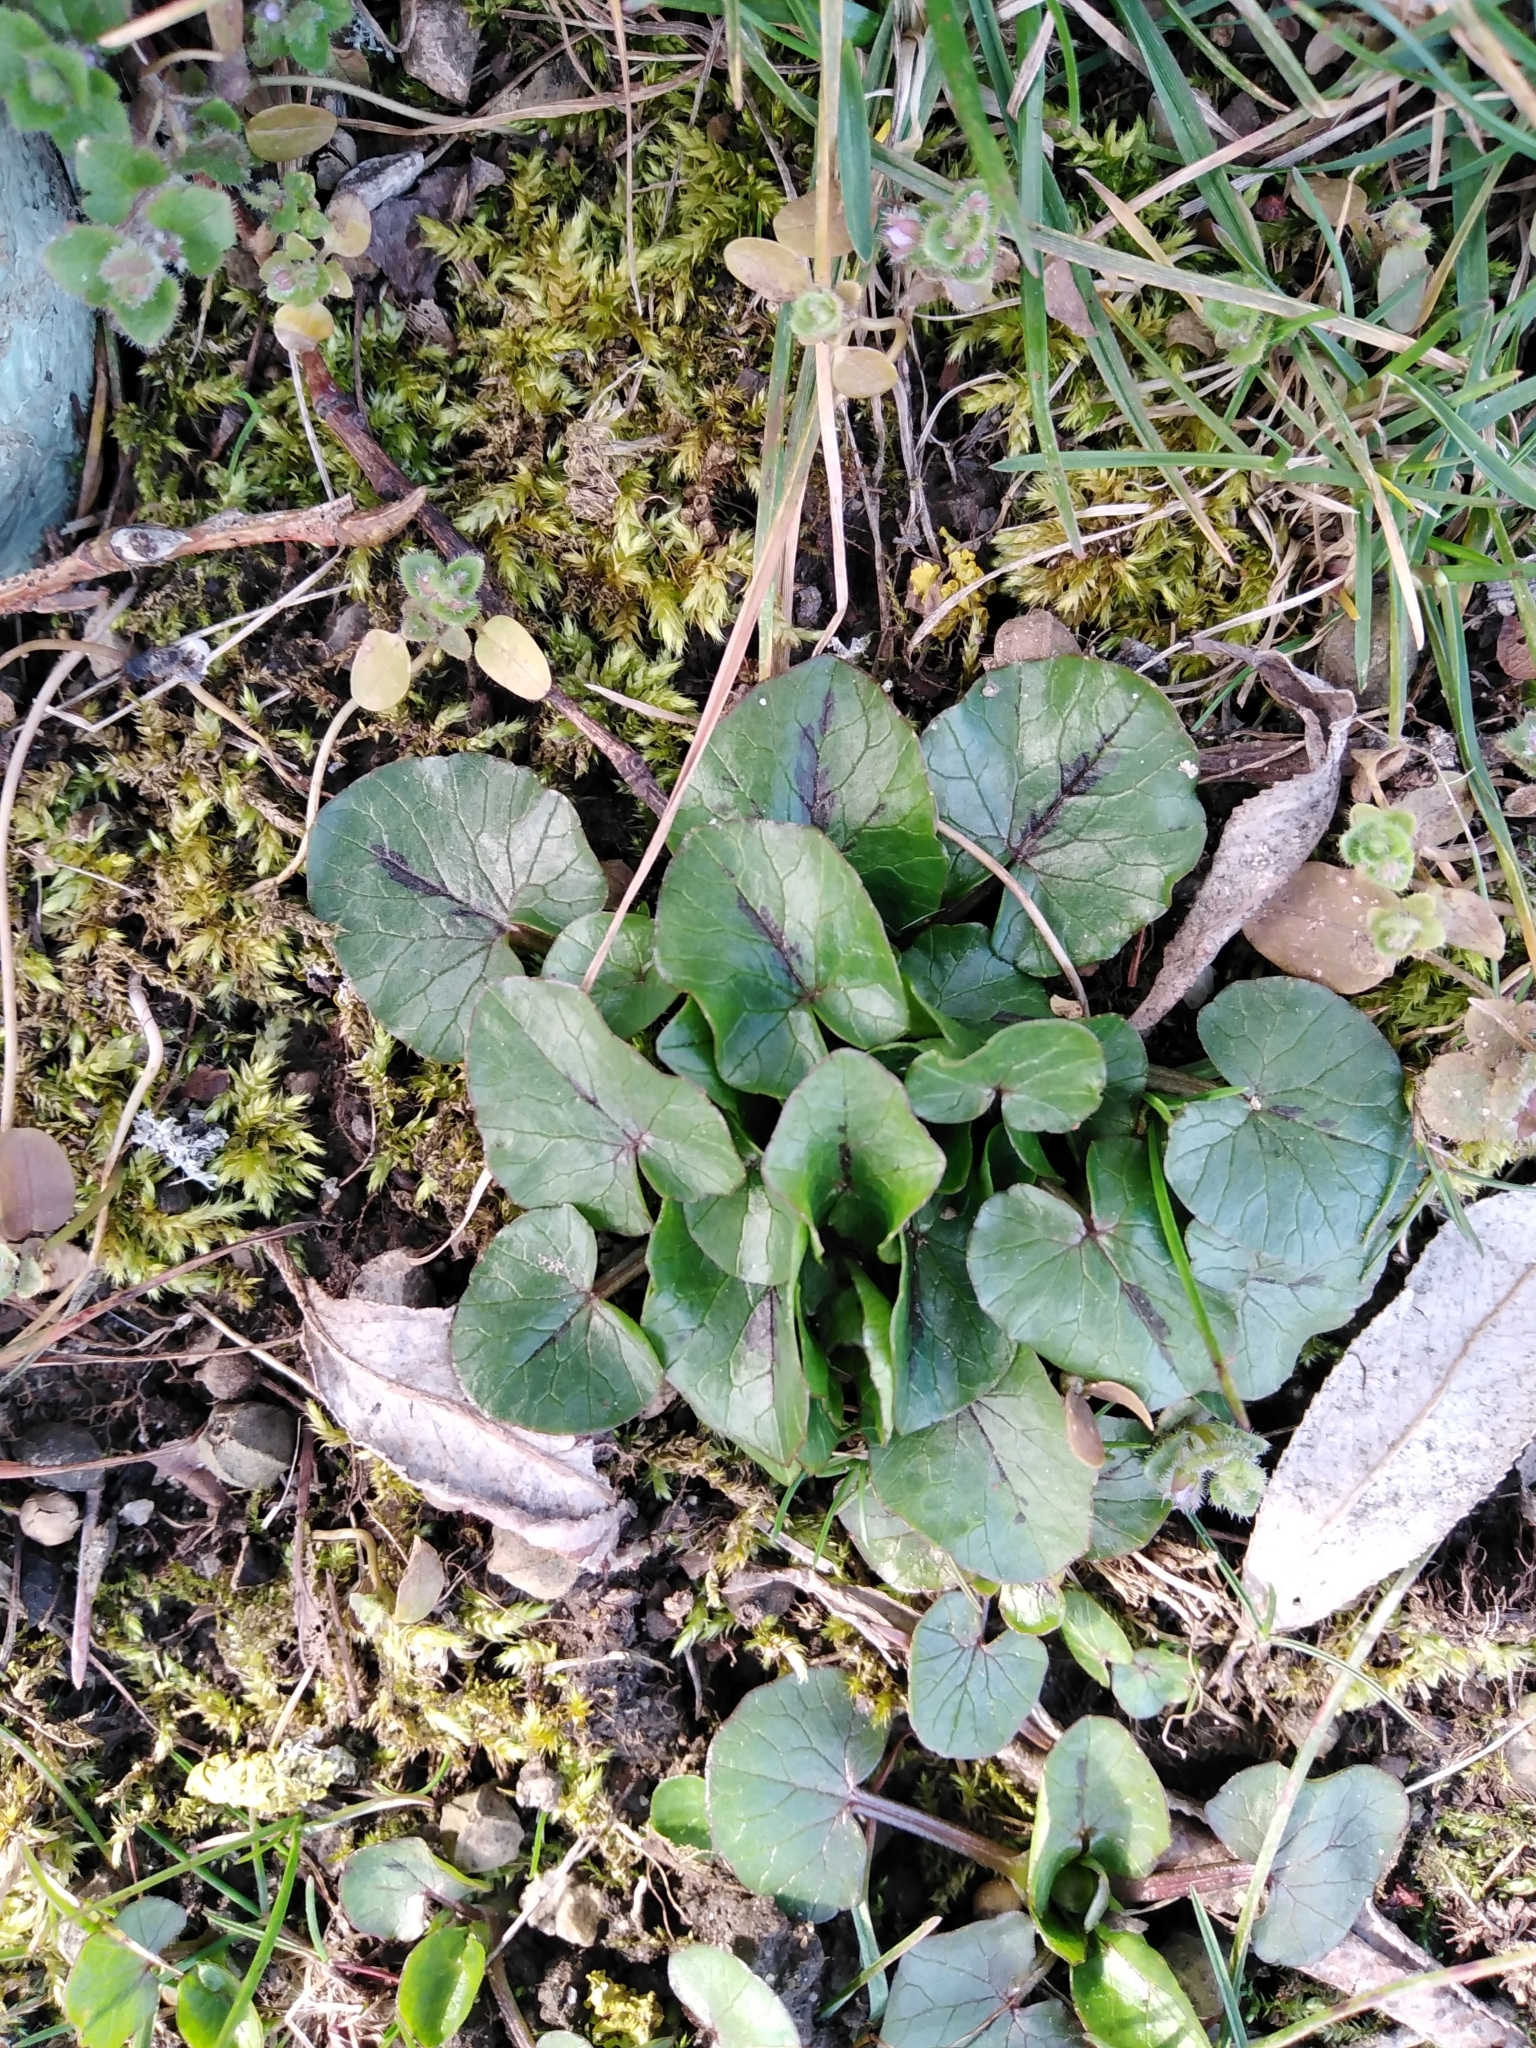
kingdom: Plantae
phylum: Tracheophyta
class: Magnoliopsida
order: Ranunculales
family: Ranunculaceae
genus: Ficaria
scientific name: Ficaria verna
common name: Lesser celandine
